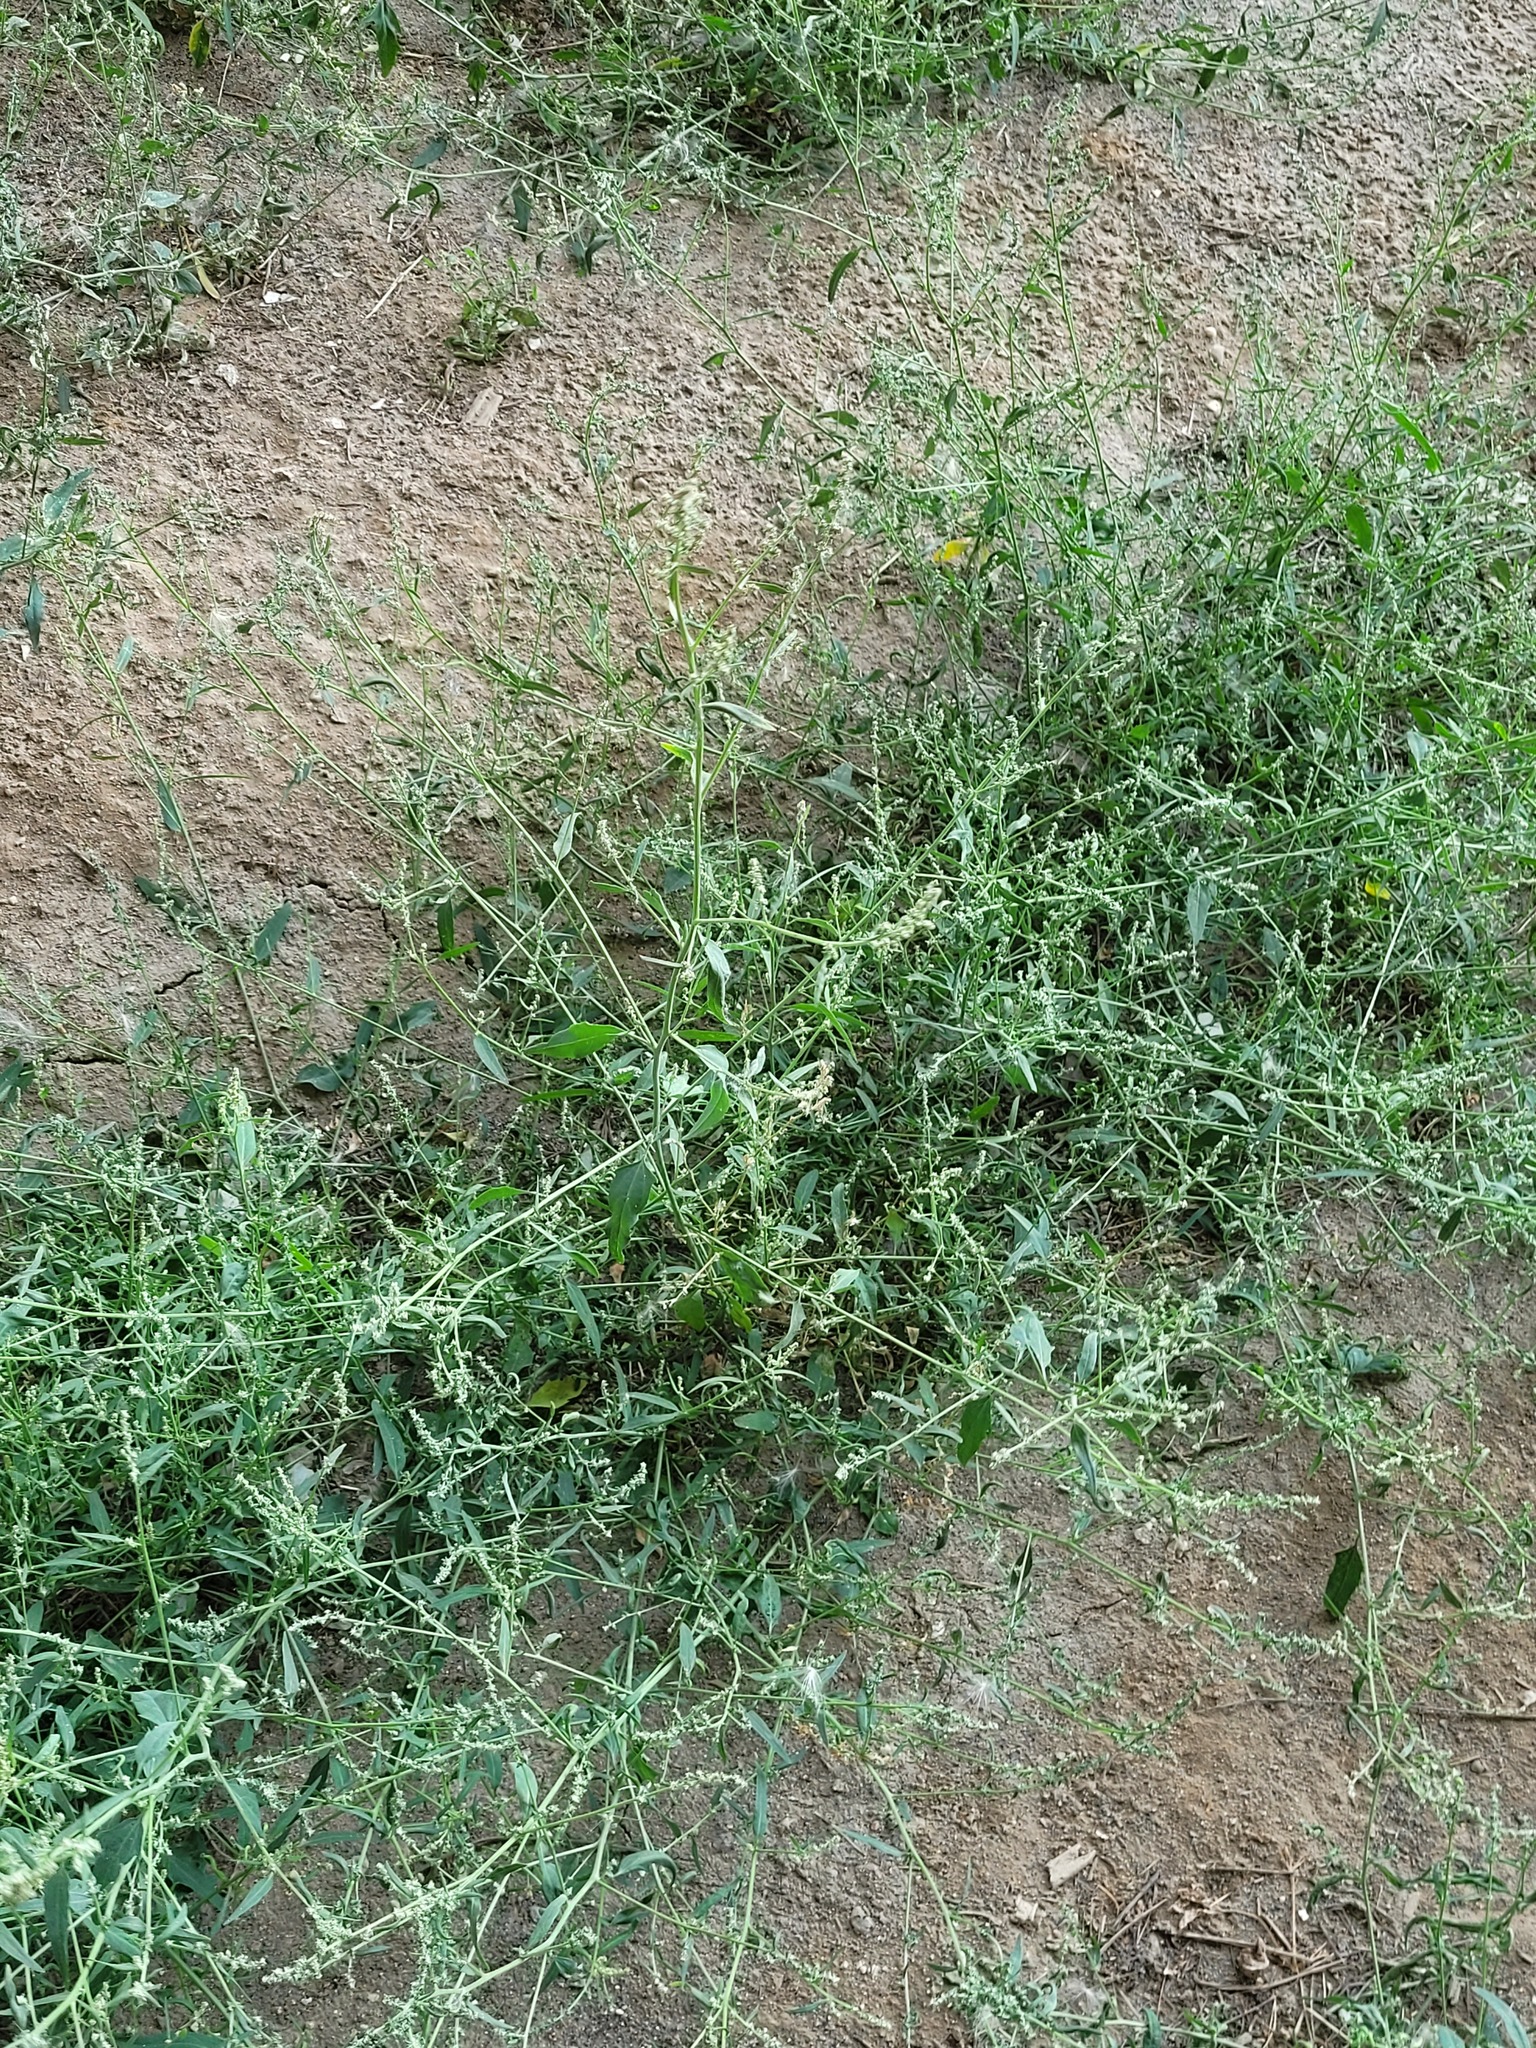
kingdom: Plantae
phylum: Tracheophyta
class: Magnoliopsida
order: Caryophyllales
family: Amaranthaceae
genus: Atriplex
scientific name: Atriplex patula
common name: Common orache
